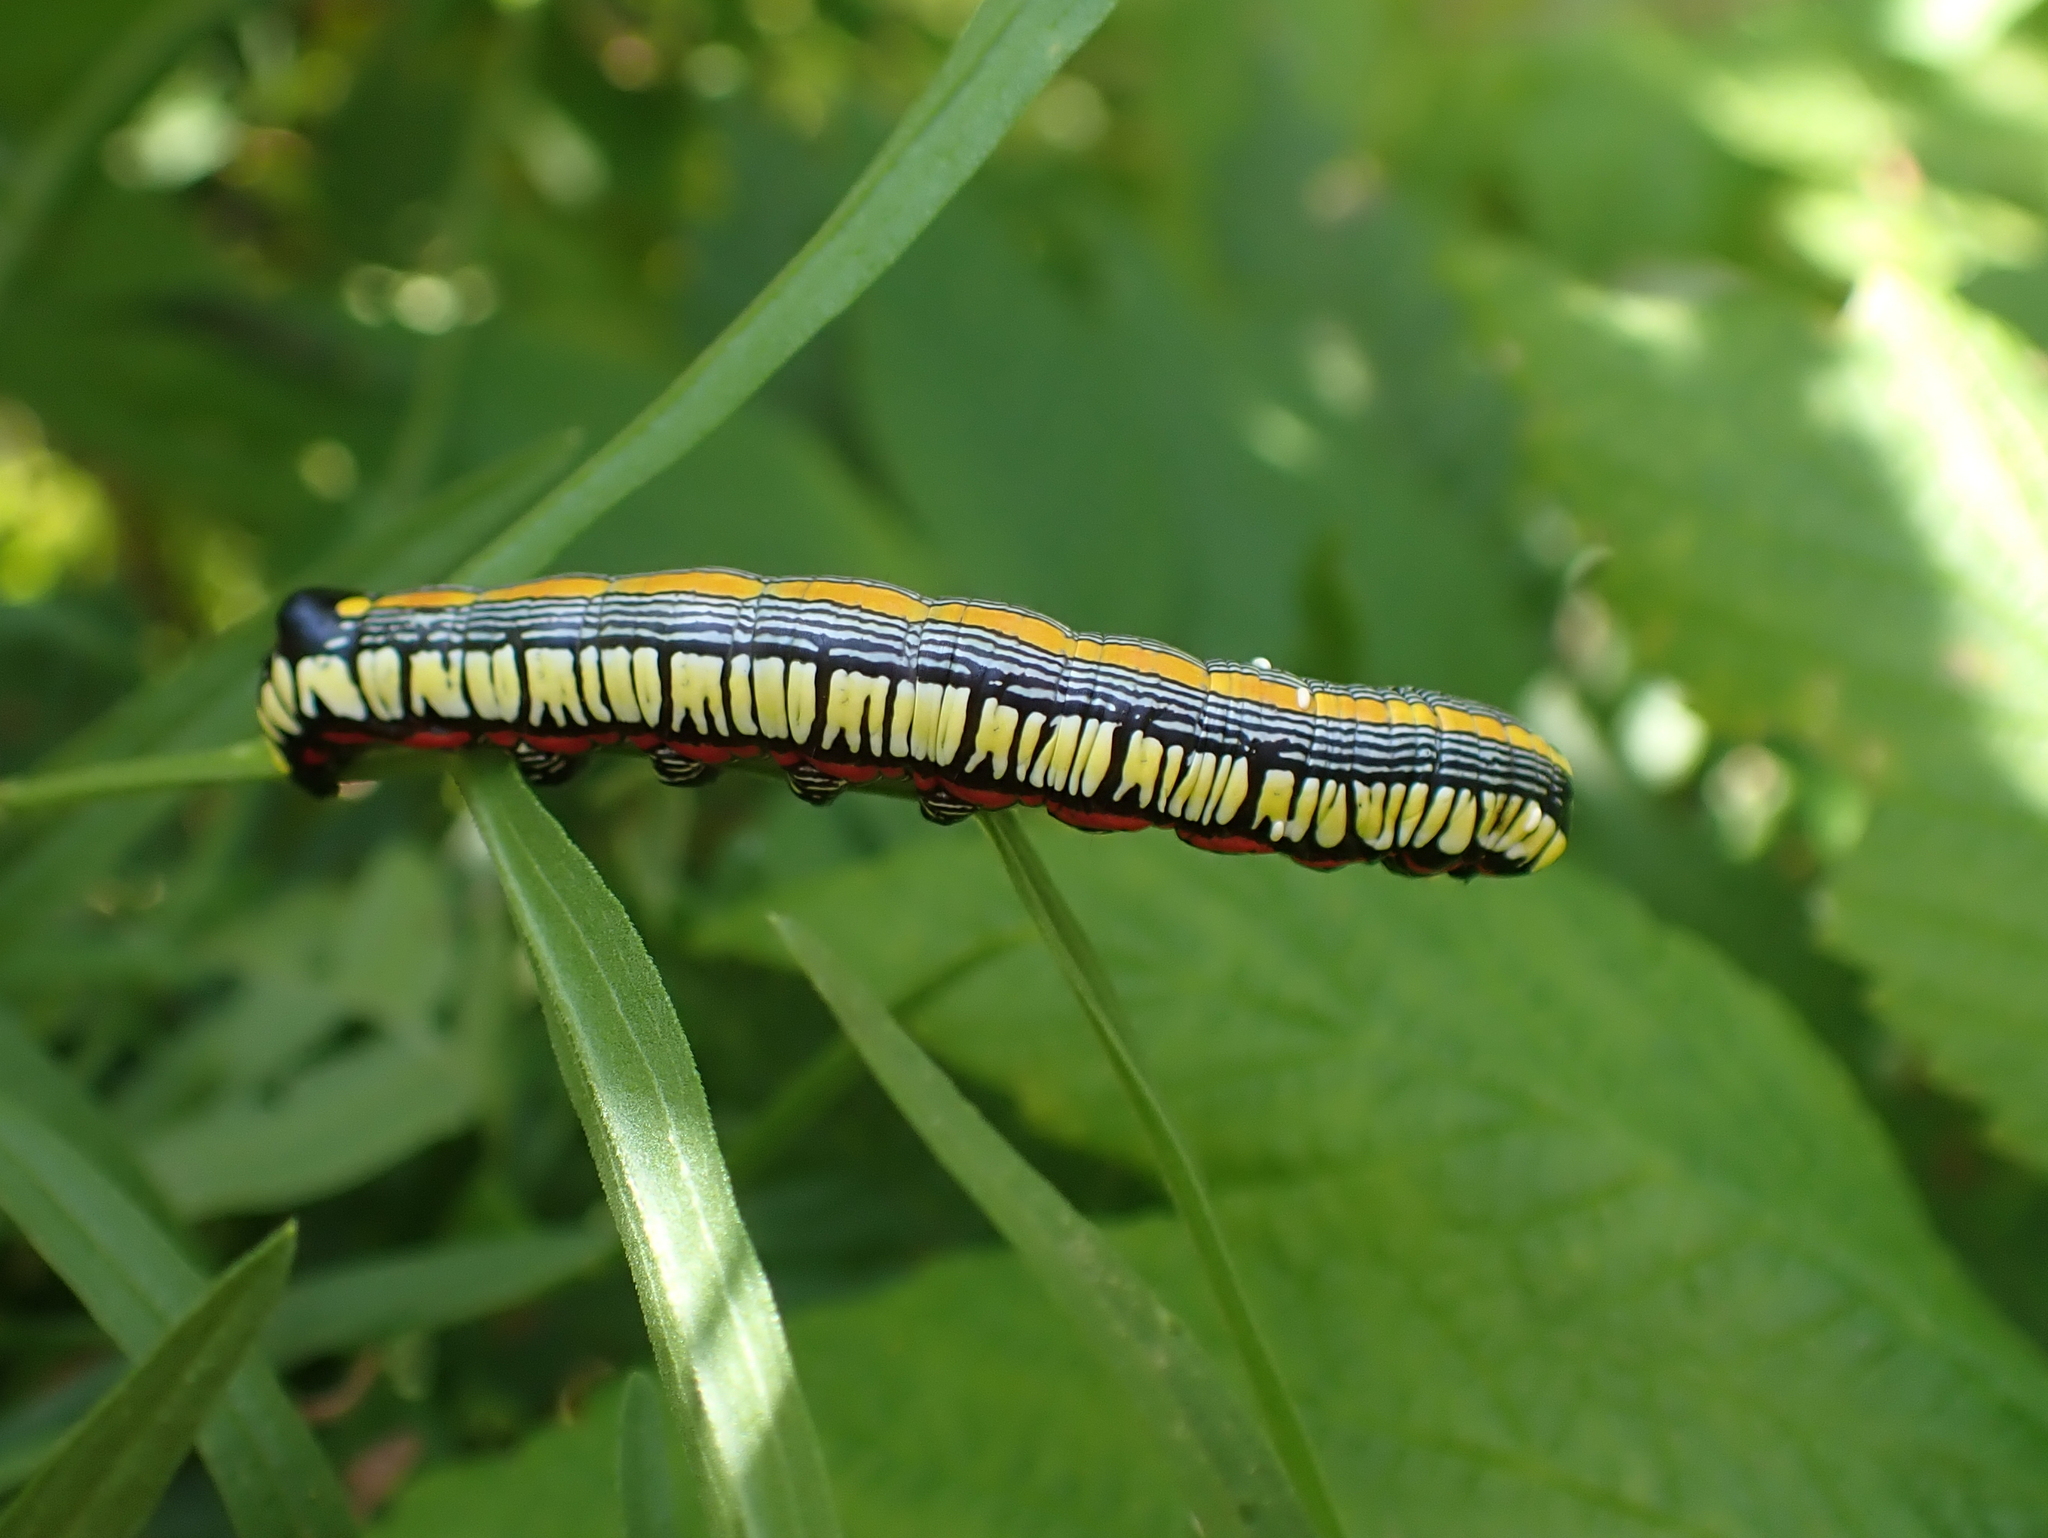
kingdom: Animalia
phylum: Arthropoda
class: Insecta
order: Lepidoptera
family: Noctuidae
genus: Cucullia
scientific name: Cucullia convexipennis
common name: Brown-hooded owlet
